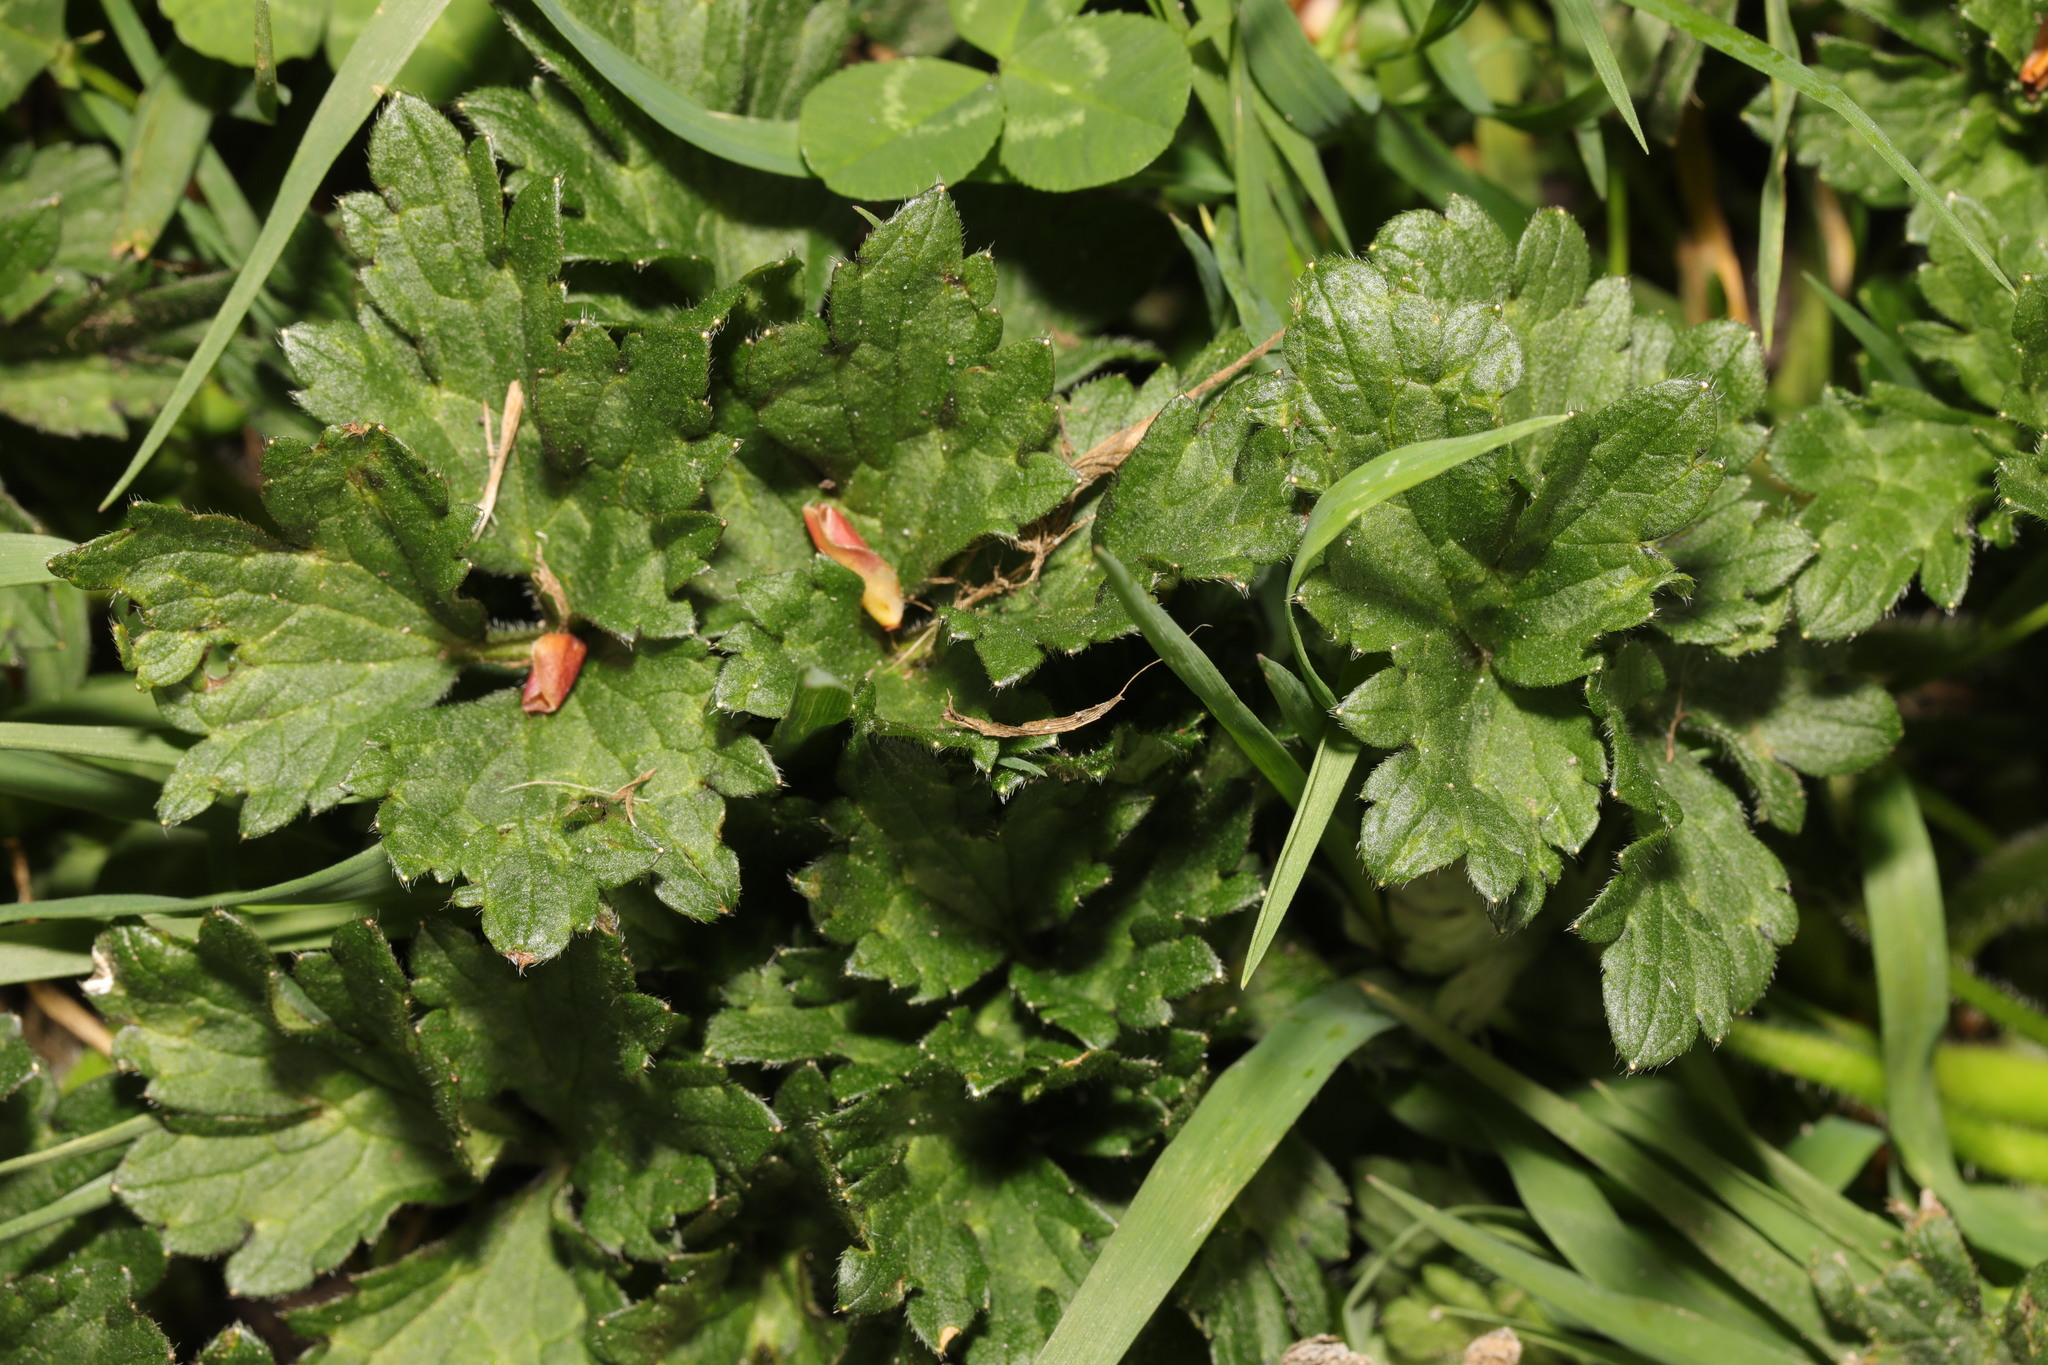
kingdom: Plantae
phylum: Tracheophyta
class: Magnoliopsida
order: Ranunculales
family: Ranunculaceae
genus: Ranunculus
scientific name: Ranunculus repens
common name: Creeping buttercup
